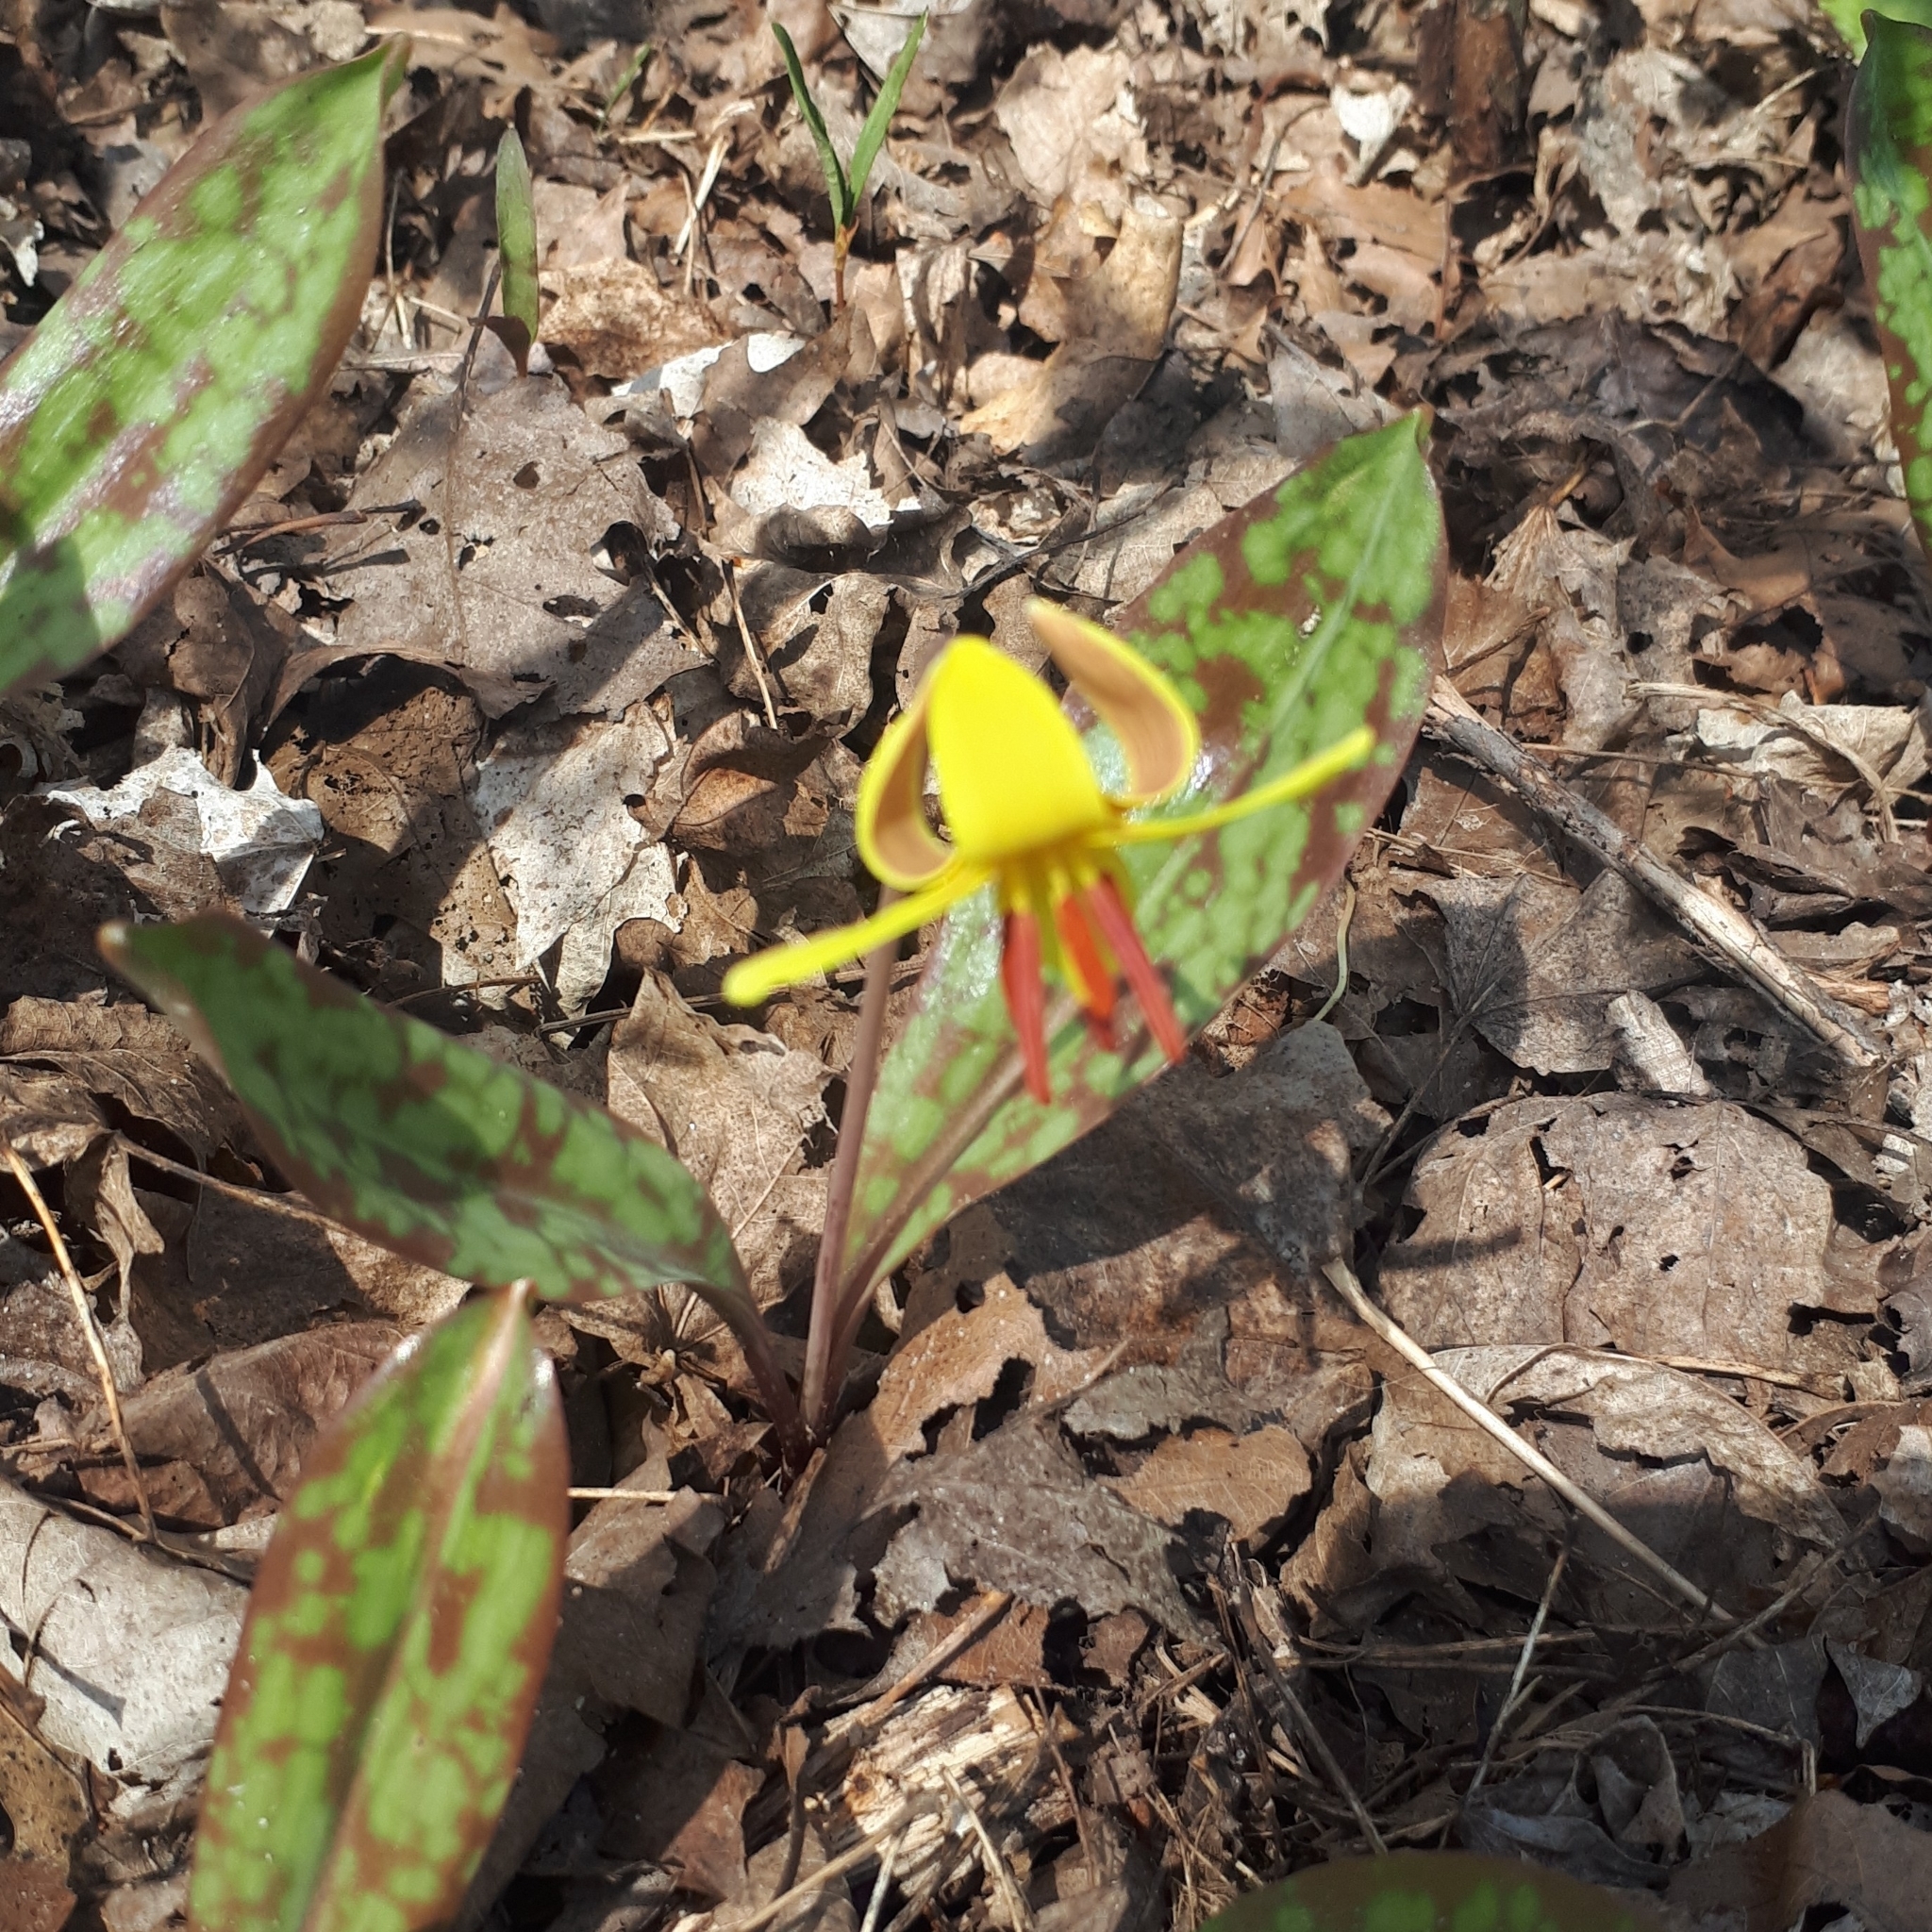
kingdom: Plantae
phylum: Tracheophyta
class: Liliopsida
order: Liliales
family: Liliaceae
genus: Erythronium
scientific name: Erythronium americanum
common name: Yellow adder's-tongue
